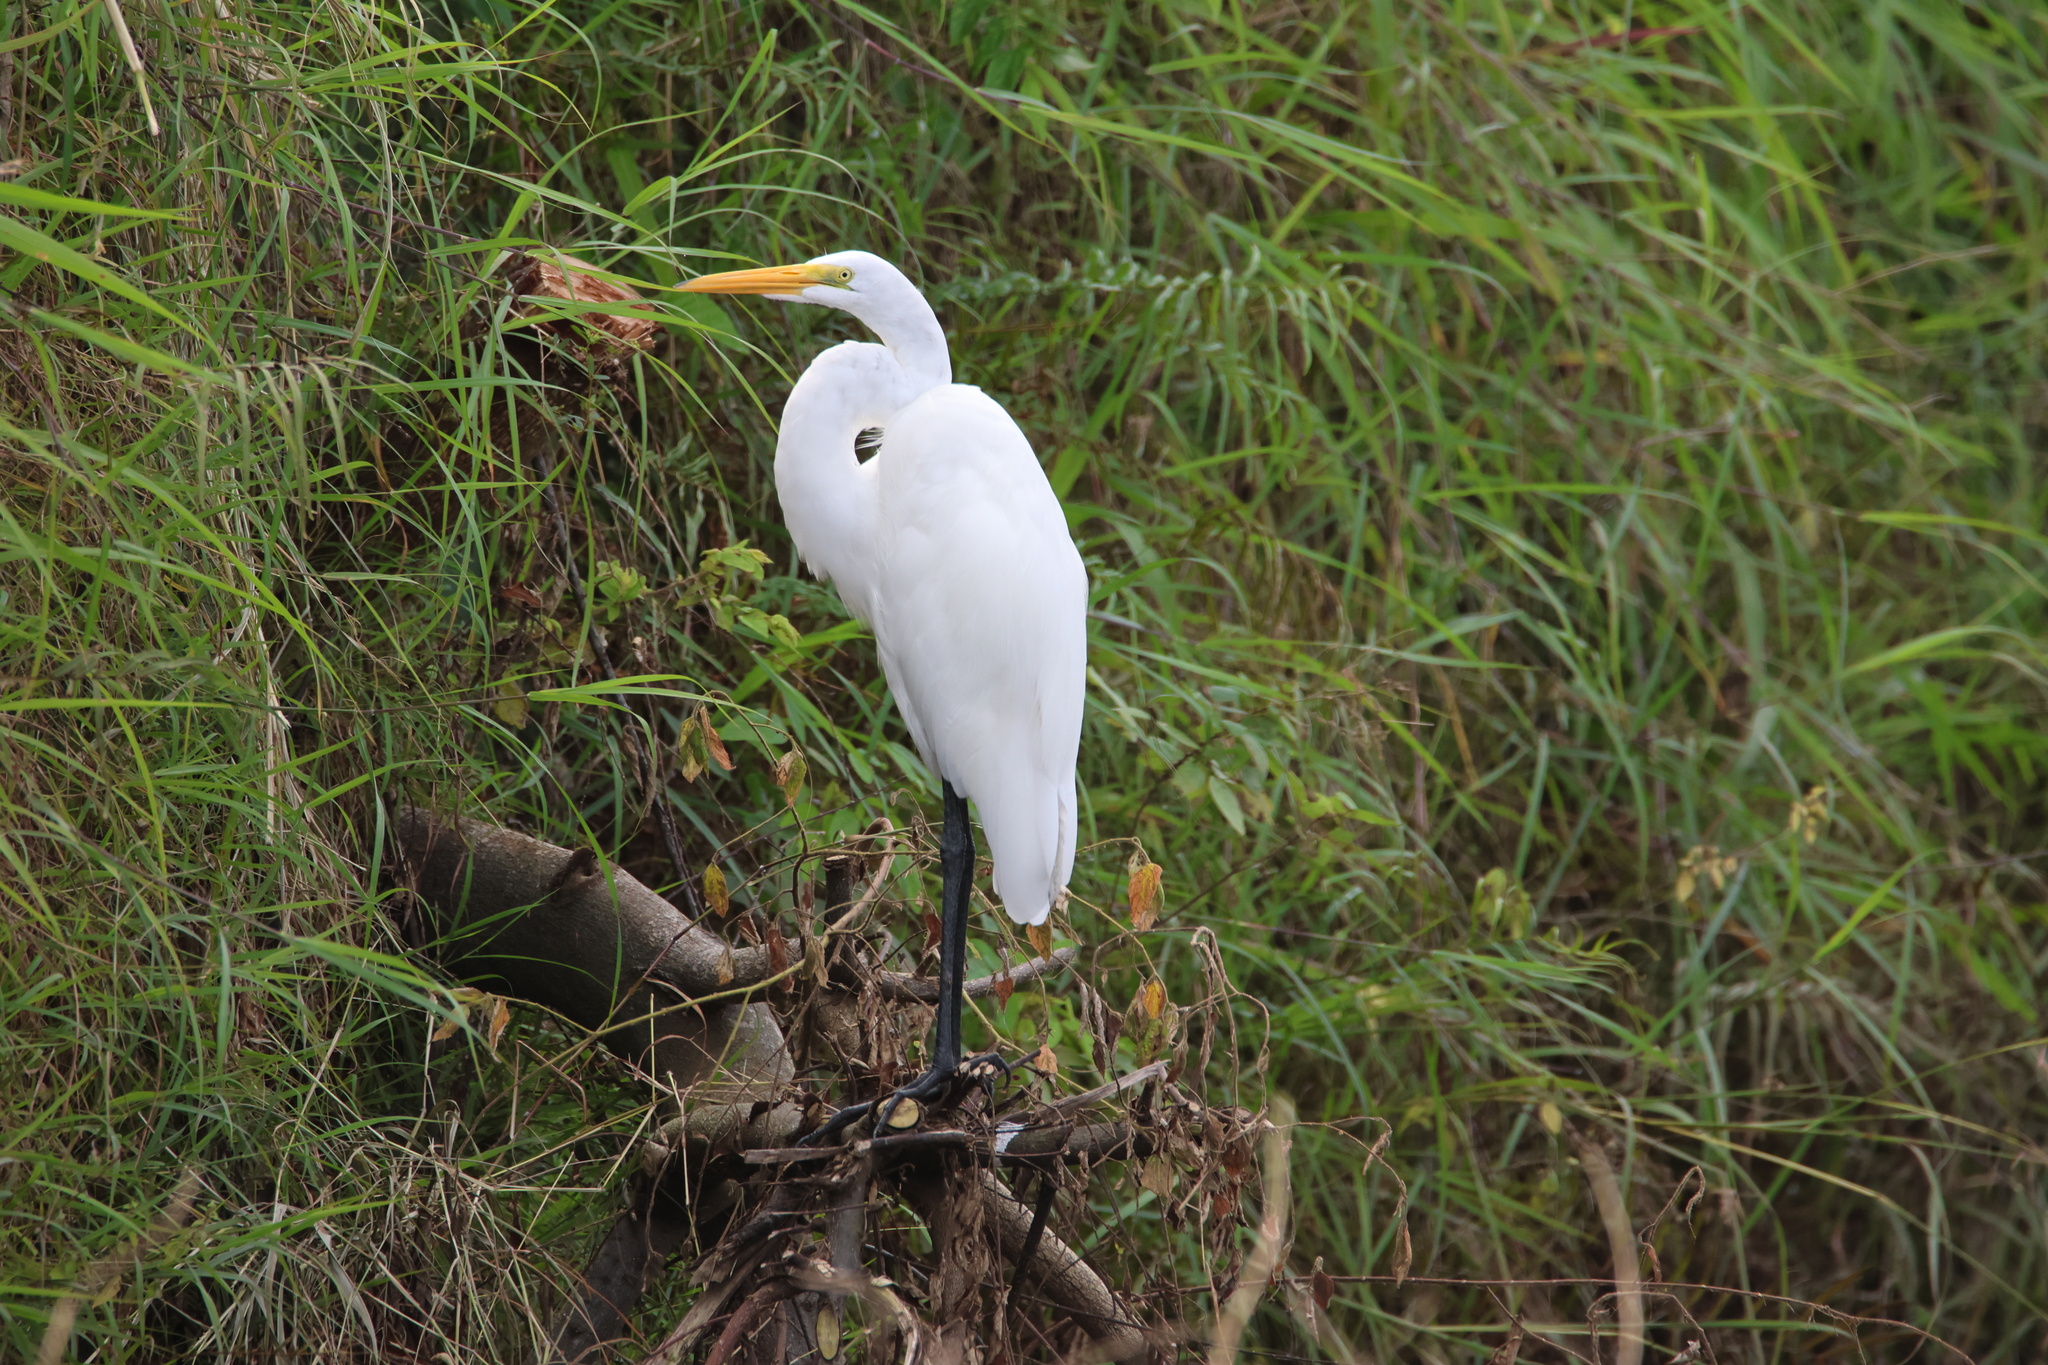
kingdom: Animalia
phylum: Chordata
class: Aves
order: Pelecaniformes
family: Ardeidae
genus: Ardea
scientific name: Ardea alba
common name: Great egret
